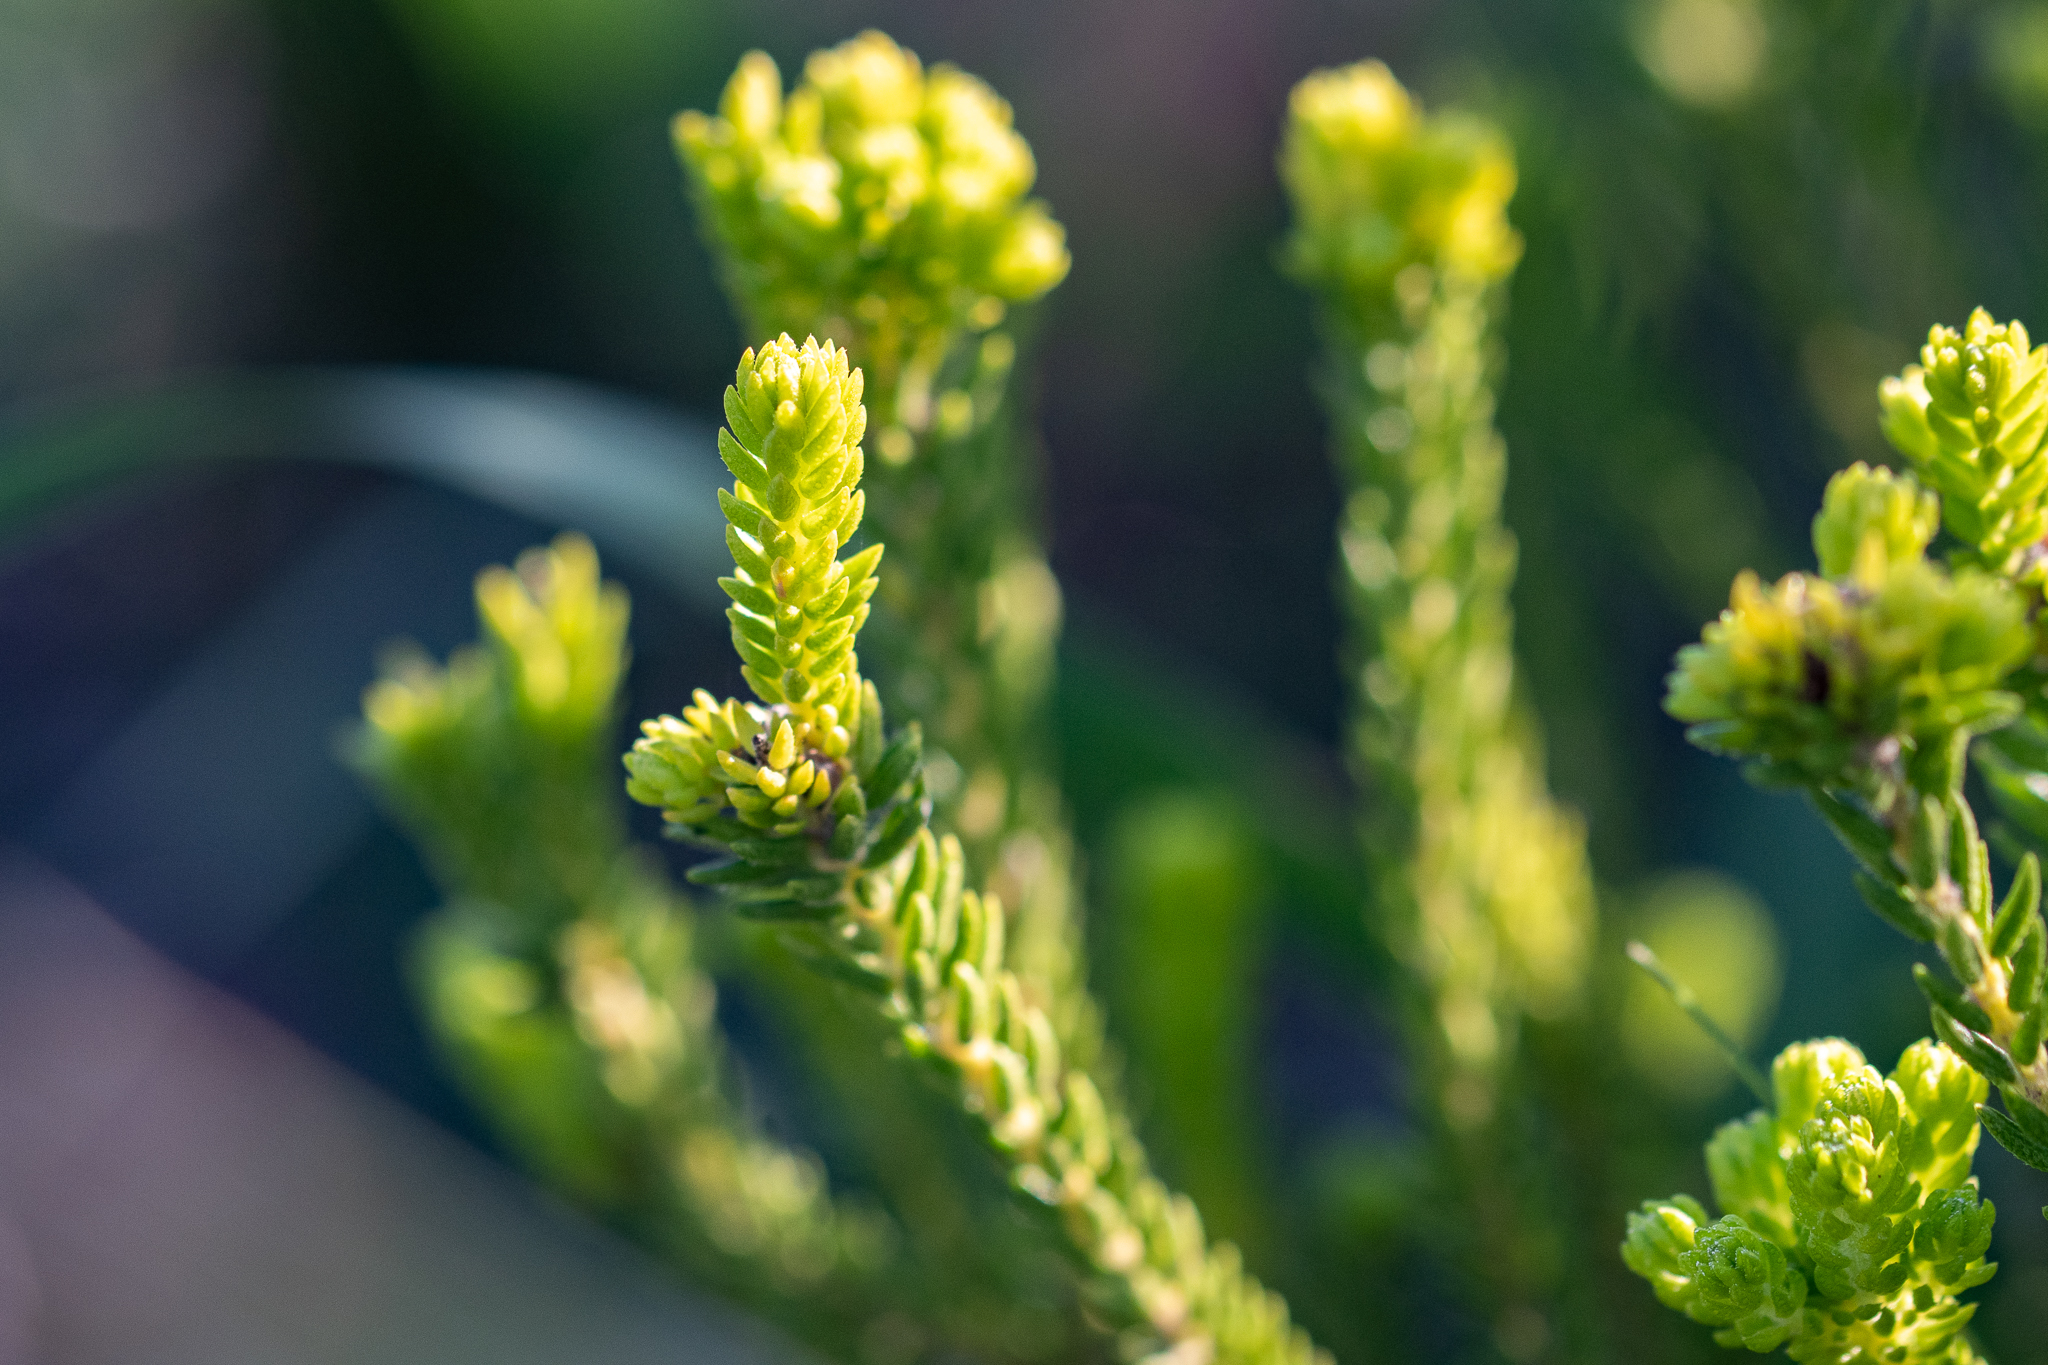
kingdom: Plantae
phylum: Tracheophyta
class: Magnoliopsida
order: Sapindales
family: Rutaceae
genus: Agathosma
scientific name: Agathosma collina
